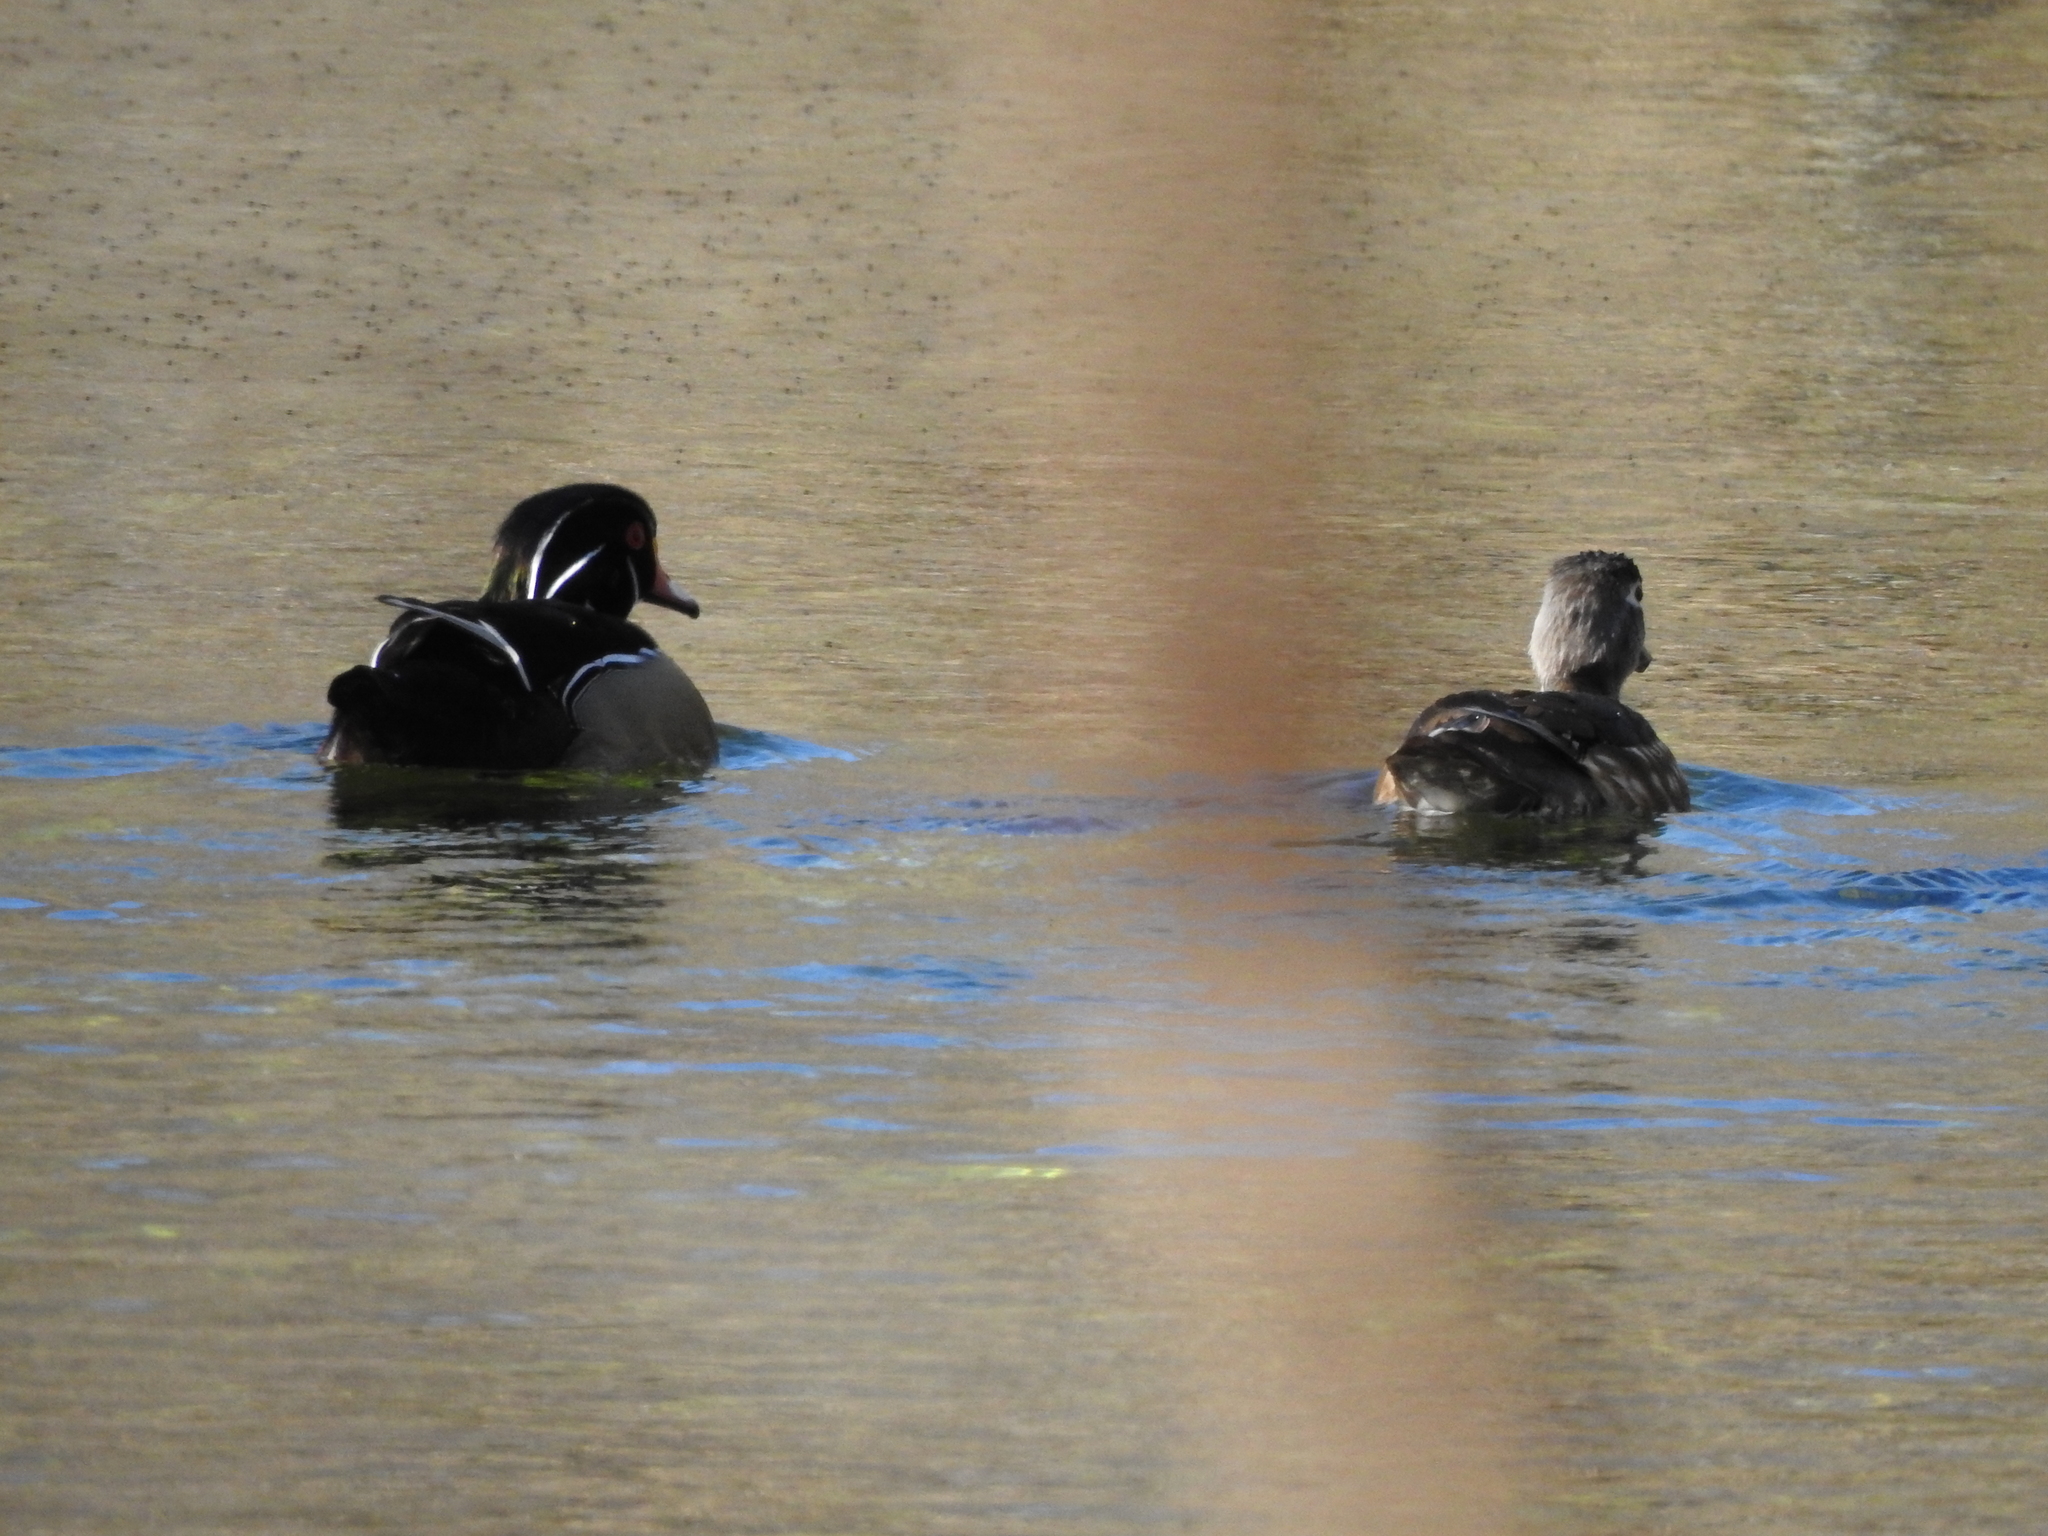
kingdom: Animalia
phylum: Chordata
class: Aves
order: Anseriformes
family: Anatidae
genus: Aix
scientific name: Aix sponsa
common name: Wood duck
